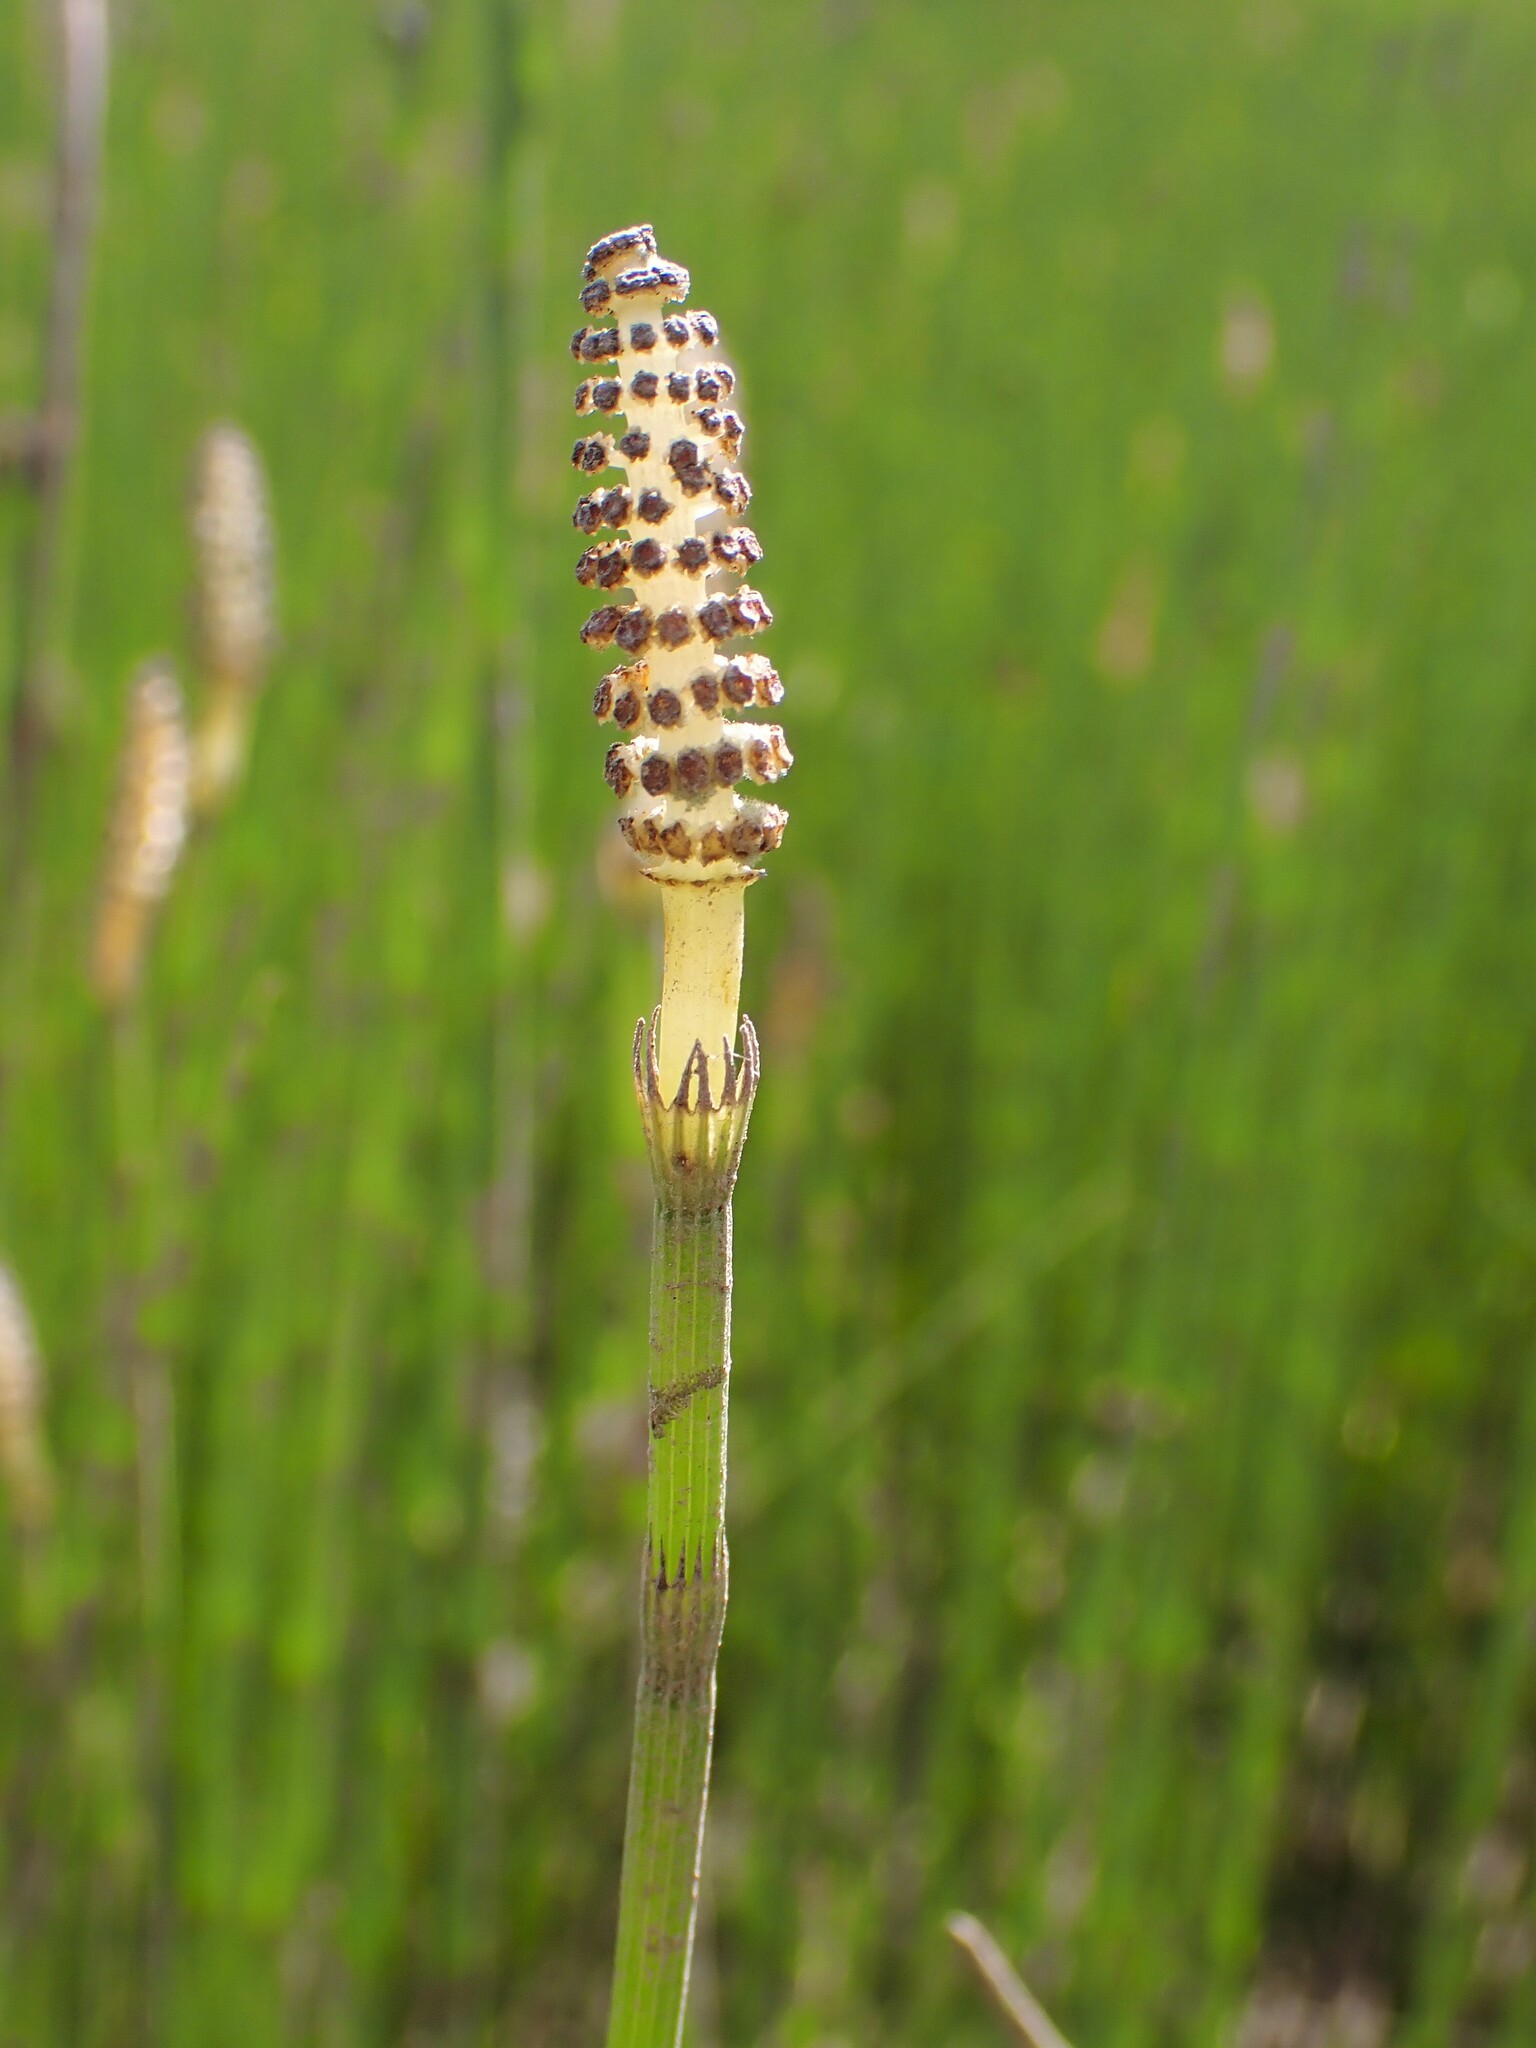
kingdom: Plantae
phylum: Tracheophyta
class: Polypodiopsida
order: Equisetales
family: Equisetaceae
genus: Equisetum
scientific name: Equisetum fluviatile
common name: Water horsetail
